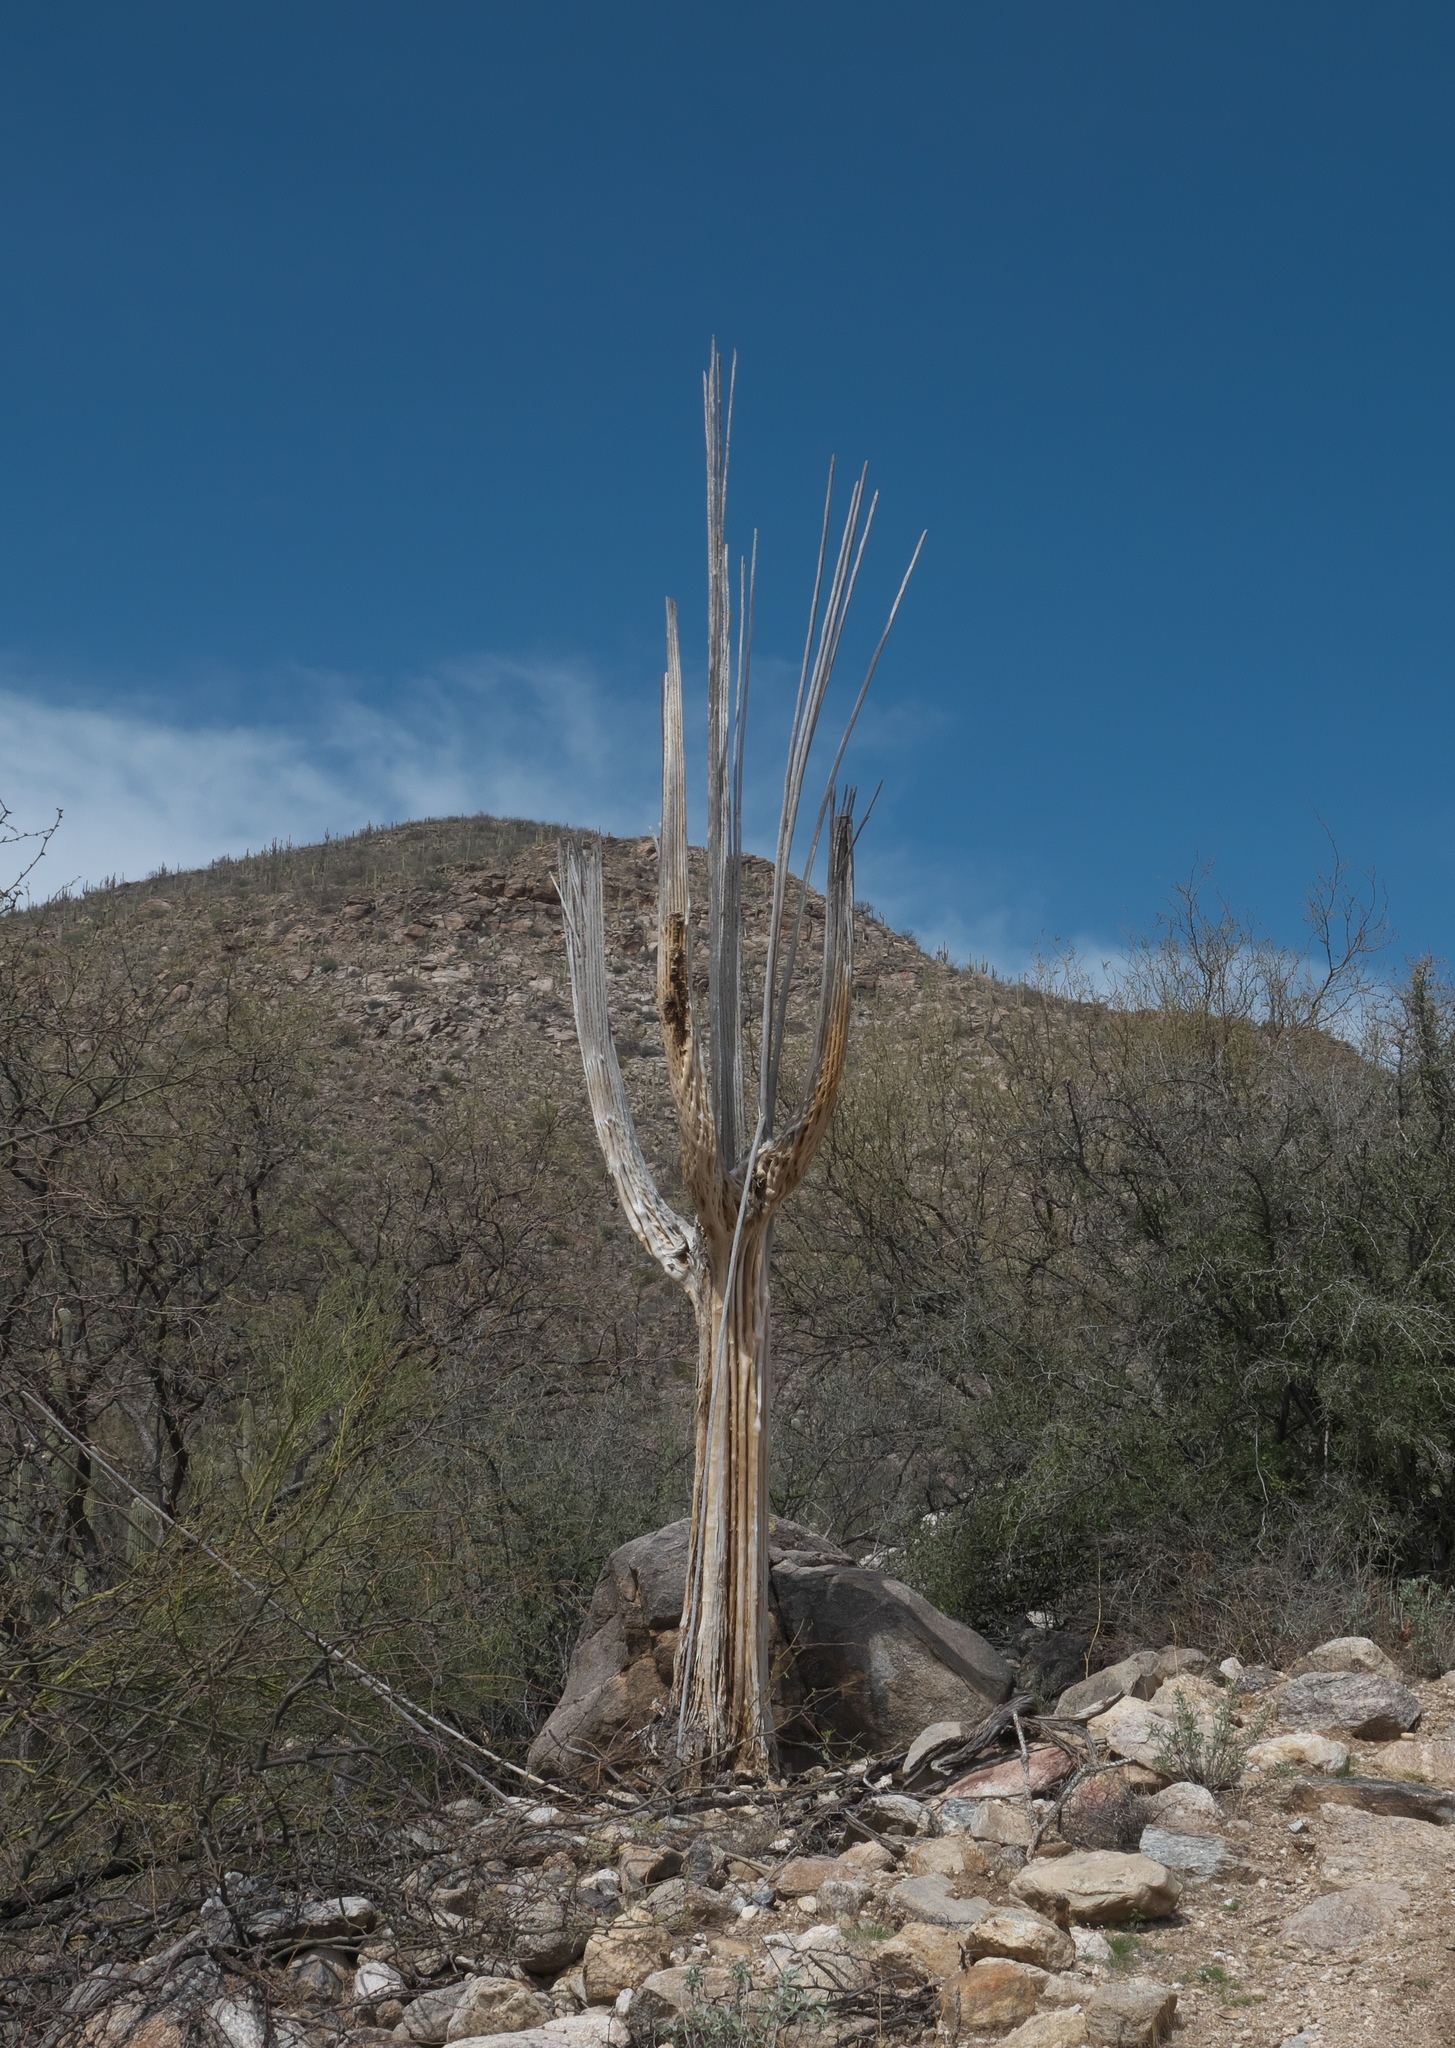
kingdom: Plantae
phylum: Tracheophyta
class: Magnoliopsida
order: Caryophyllales
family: Cactaceae
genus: Carnegiea
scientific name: Carnegiea gigantea
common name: Saguaro
